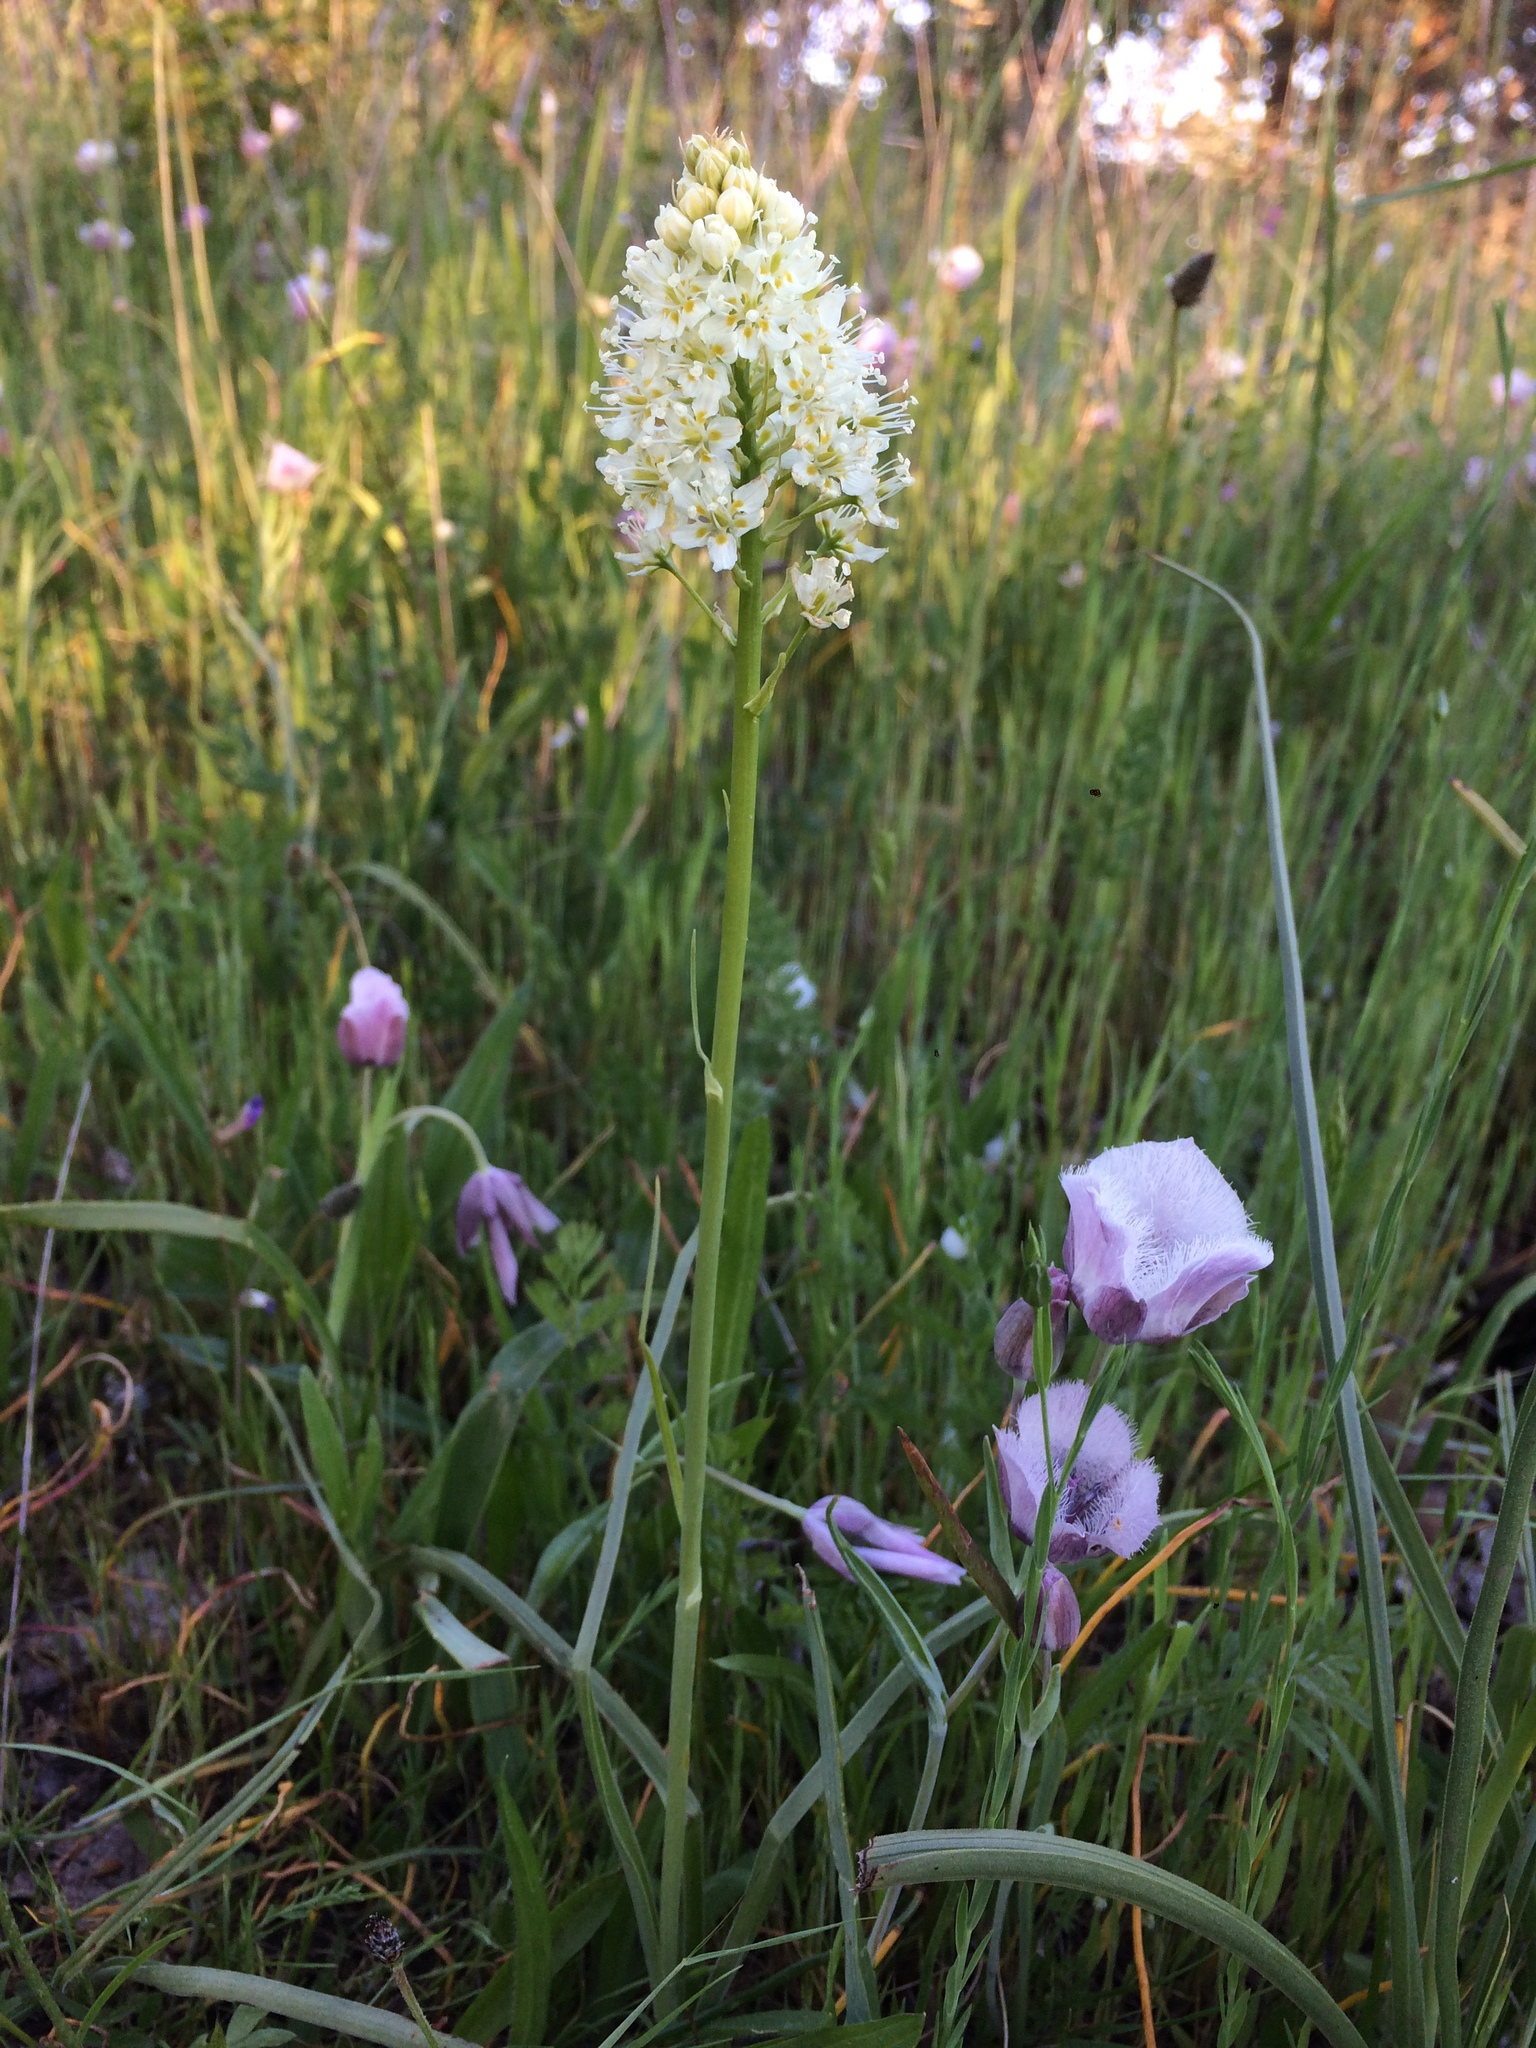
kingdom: Plantae
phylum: Tracheophyta
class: Liliopsida
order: Liliales
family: Melanthiaceae
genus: Toxicoscordion
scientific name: Toxicoscordion venenosum
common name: Meadow death camas
